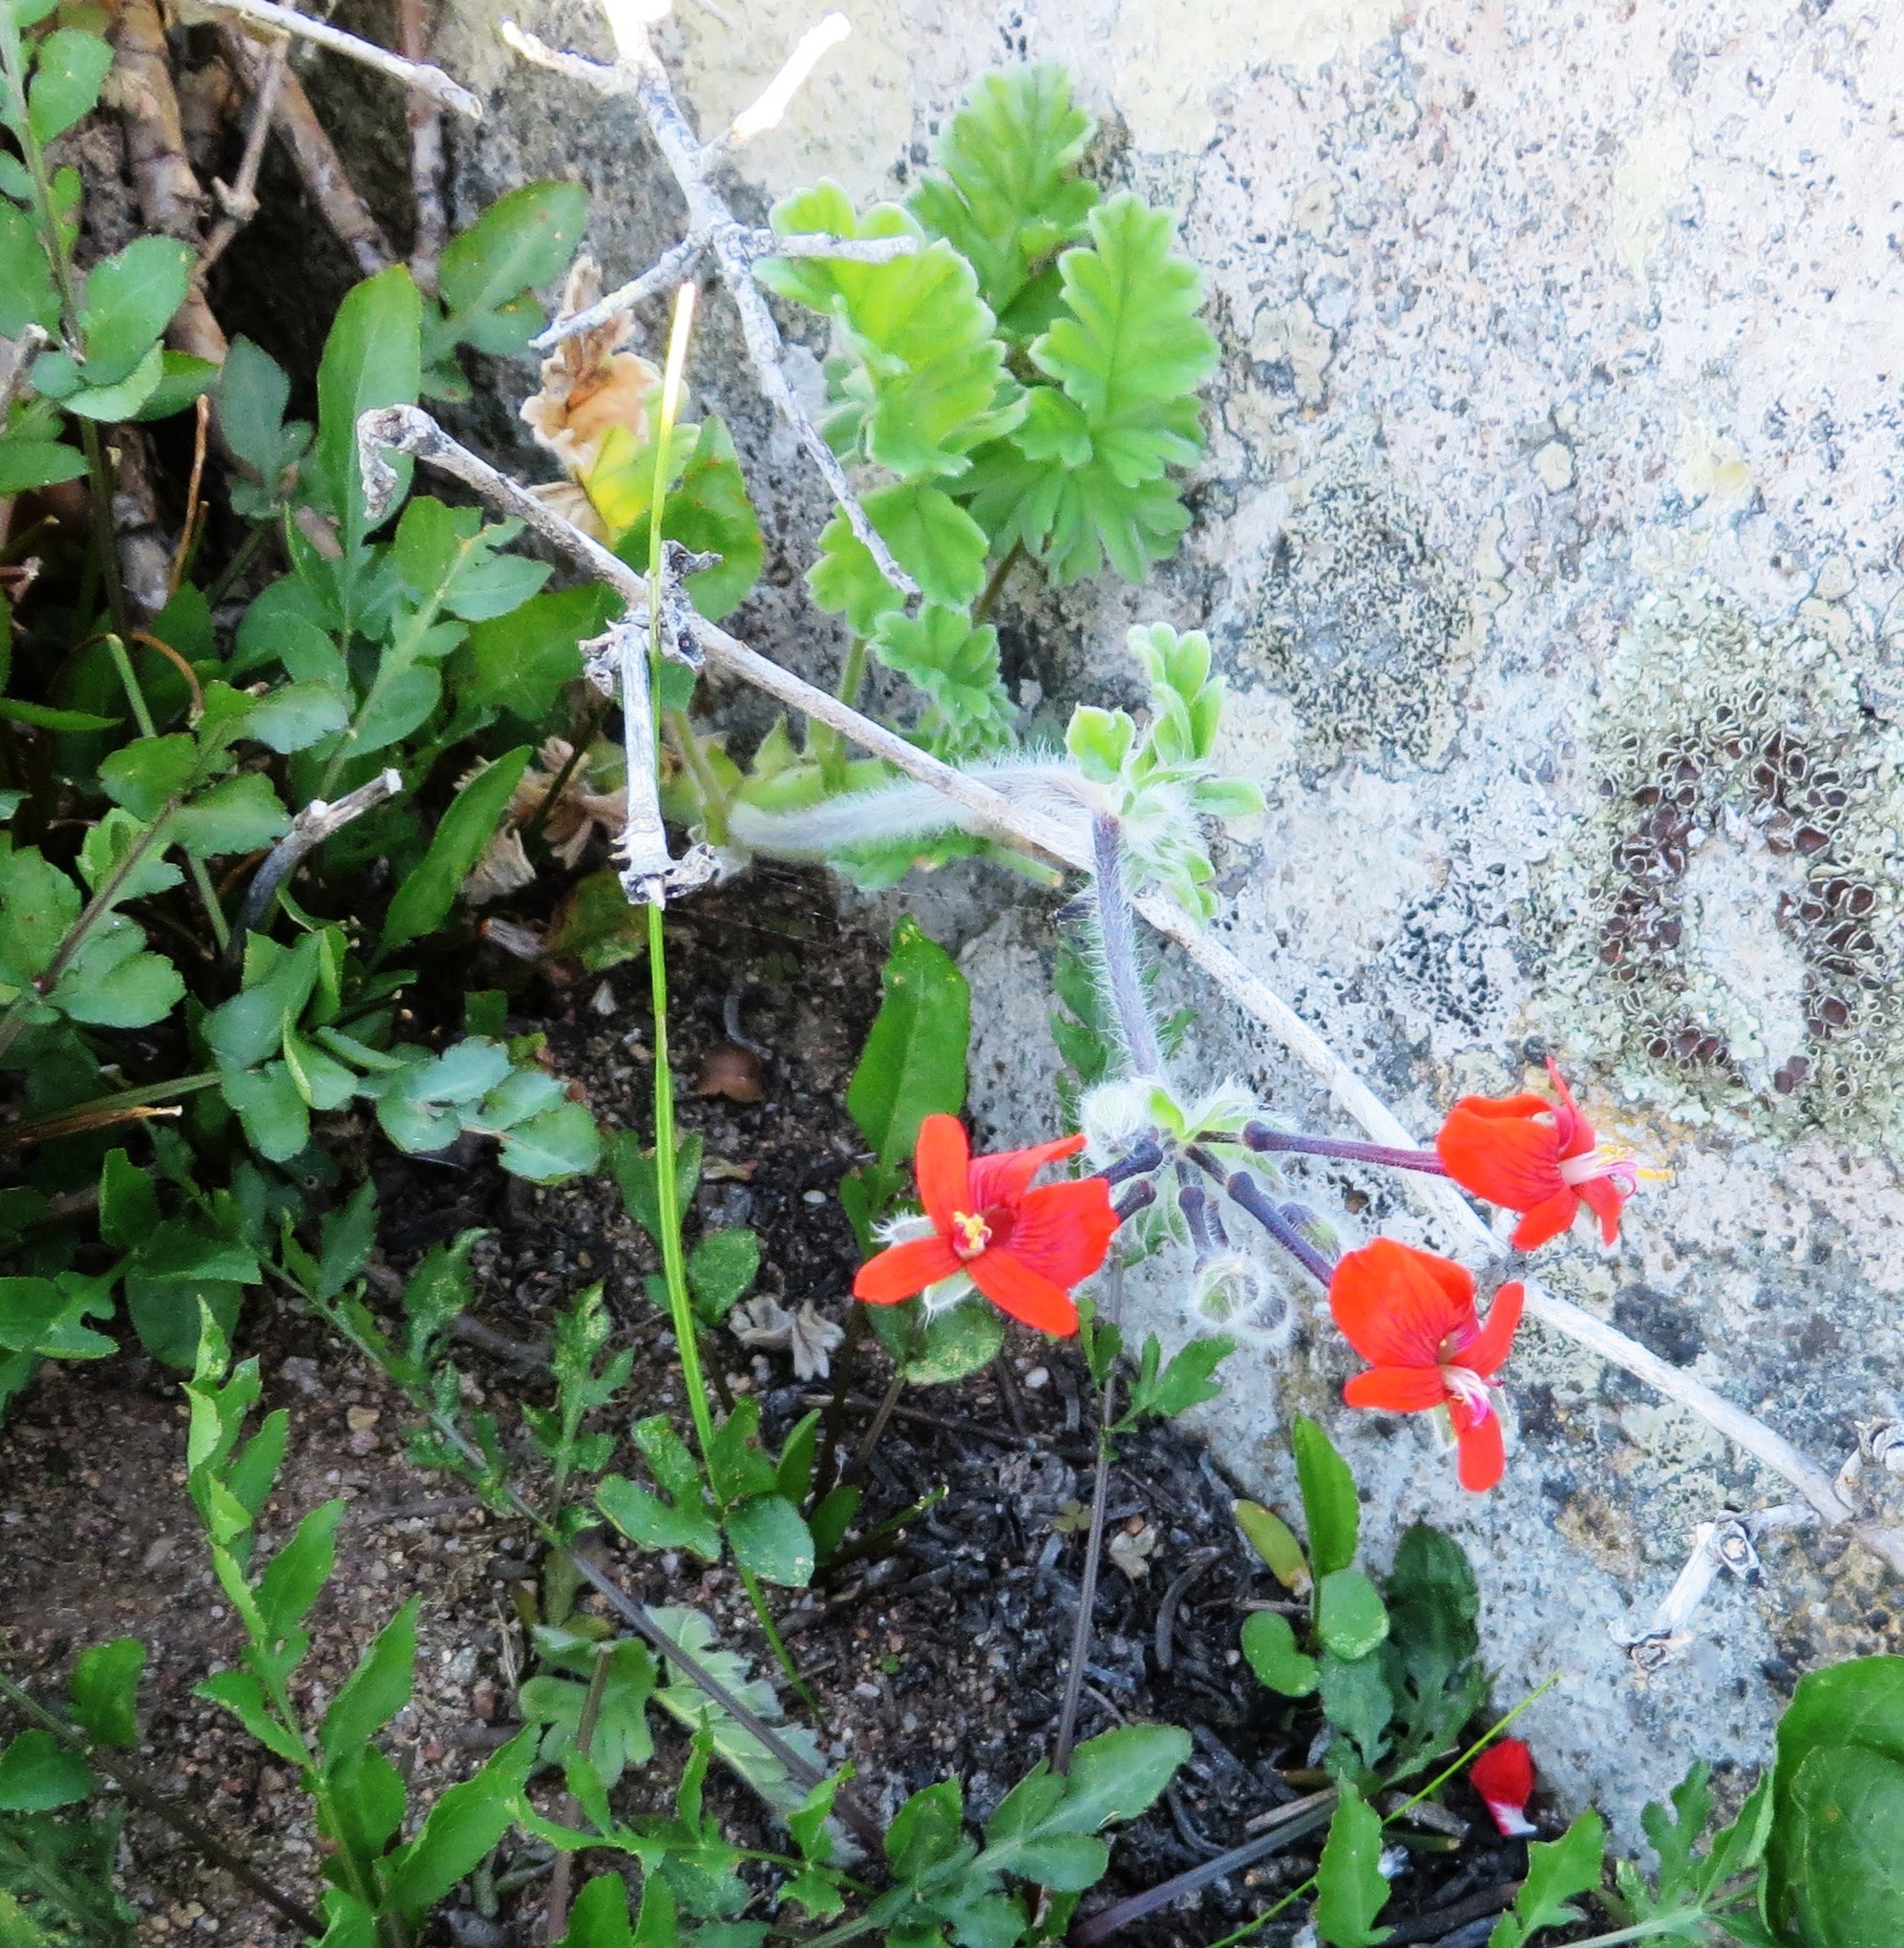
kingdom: Plantae
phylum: Tracheophyta
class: Magnoliopsida
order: Geraniales
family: Geraniaceae
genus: Pelargonium
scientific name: Pelargonium fulgidum
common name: Celandine-leaf pelargonium
